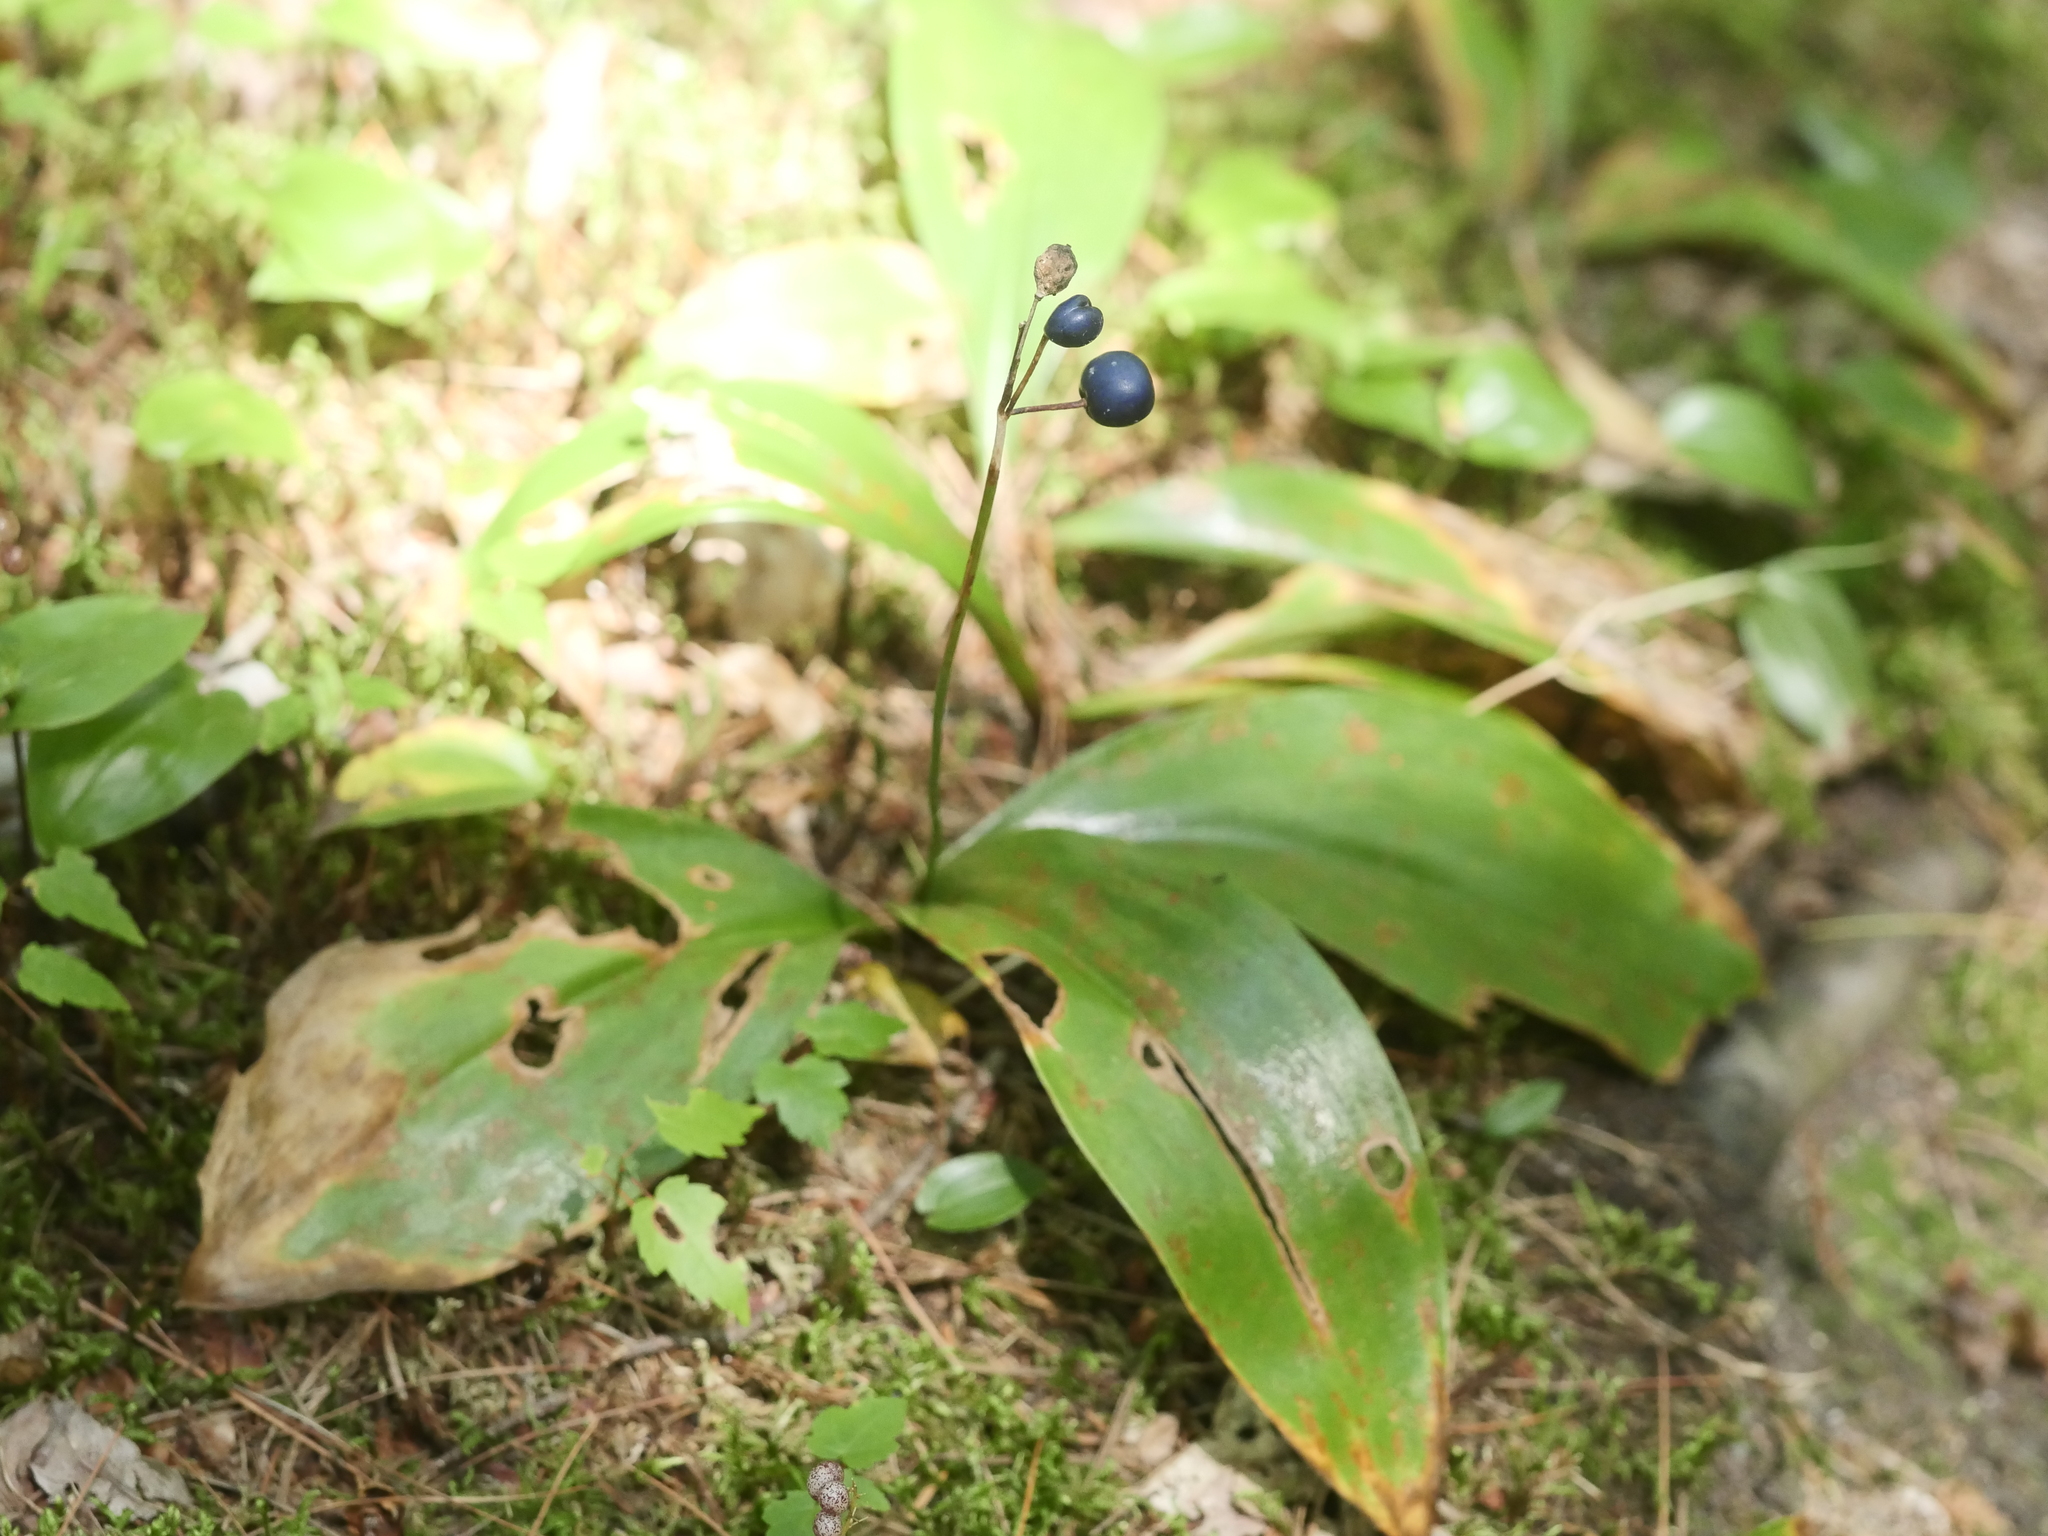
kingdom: Plantae
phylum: Tracheophyta
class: Liliopsida
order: Liliales
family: Liliaceae
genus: Clintonia
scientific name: Clintonia borealis
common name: Yellow clintonia
